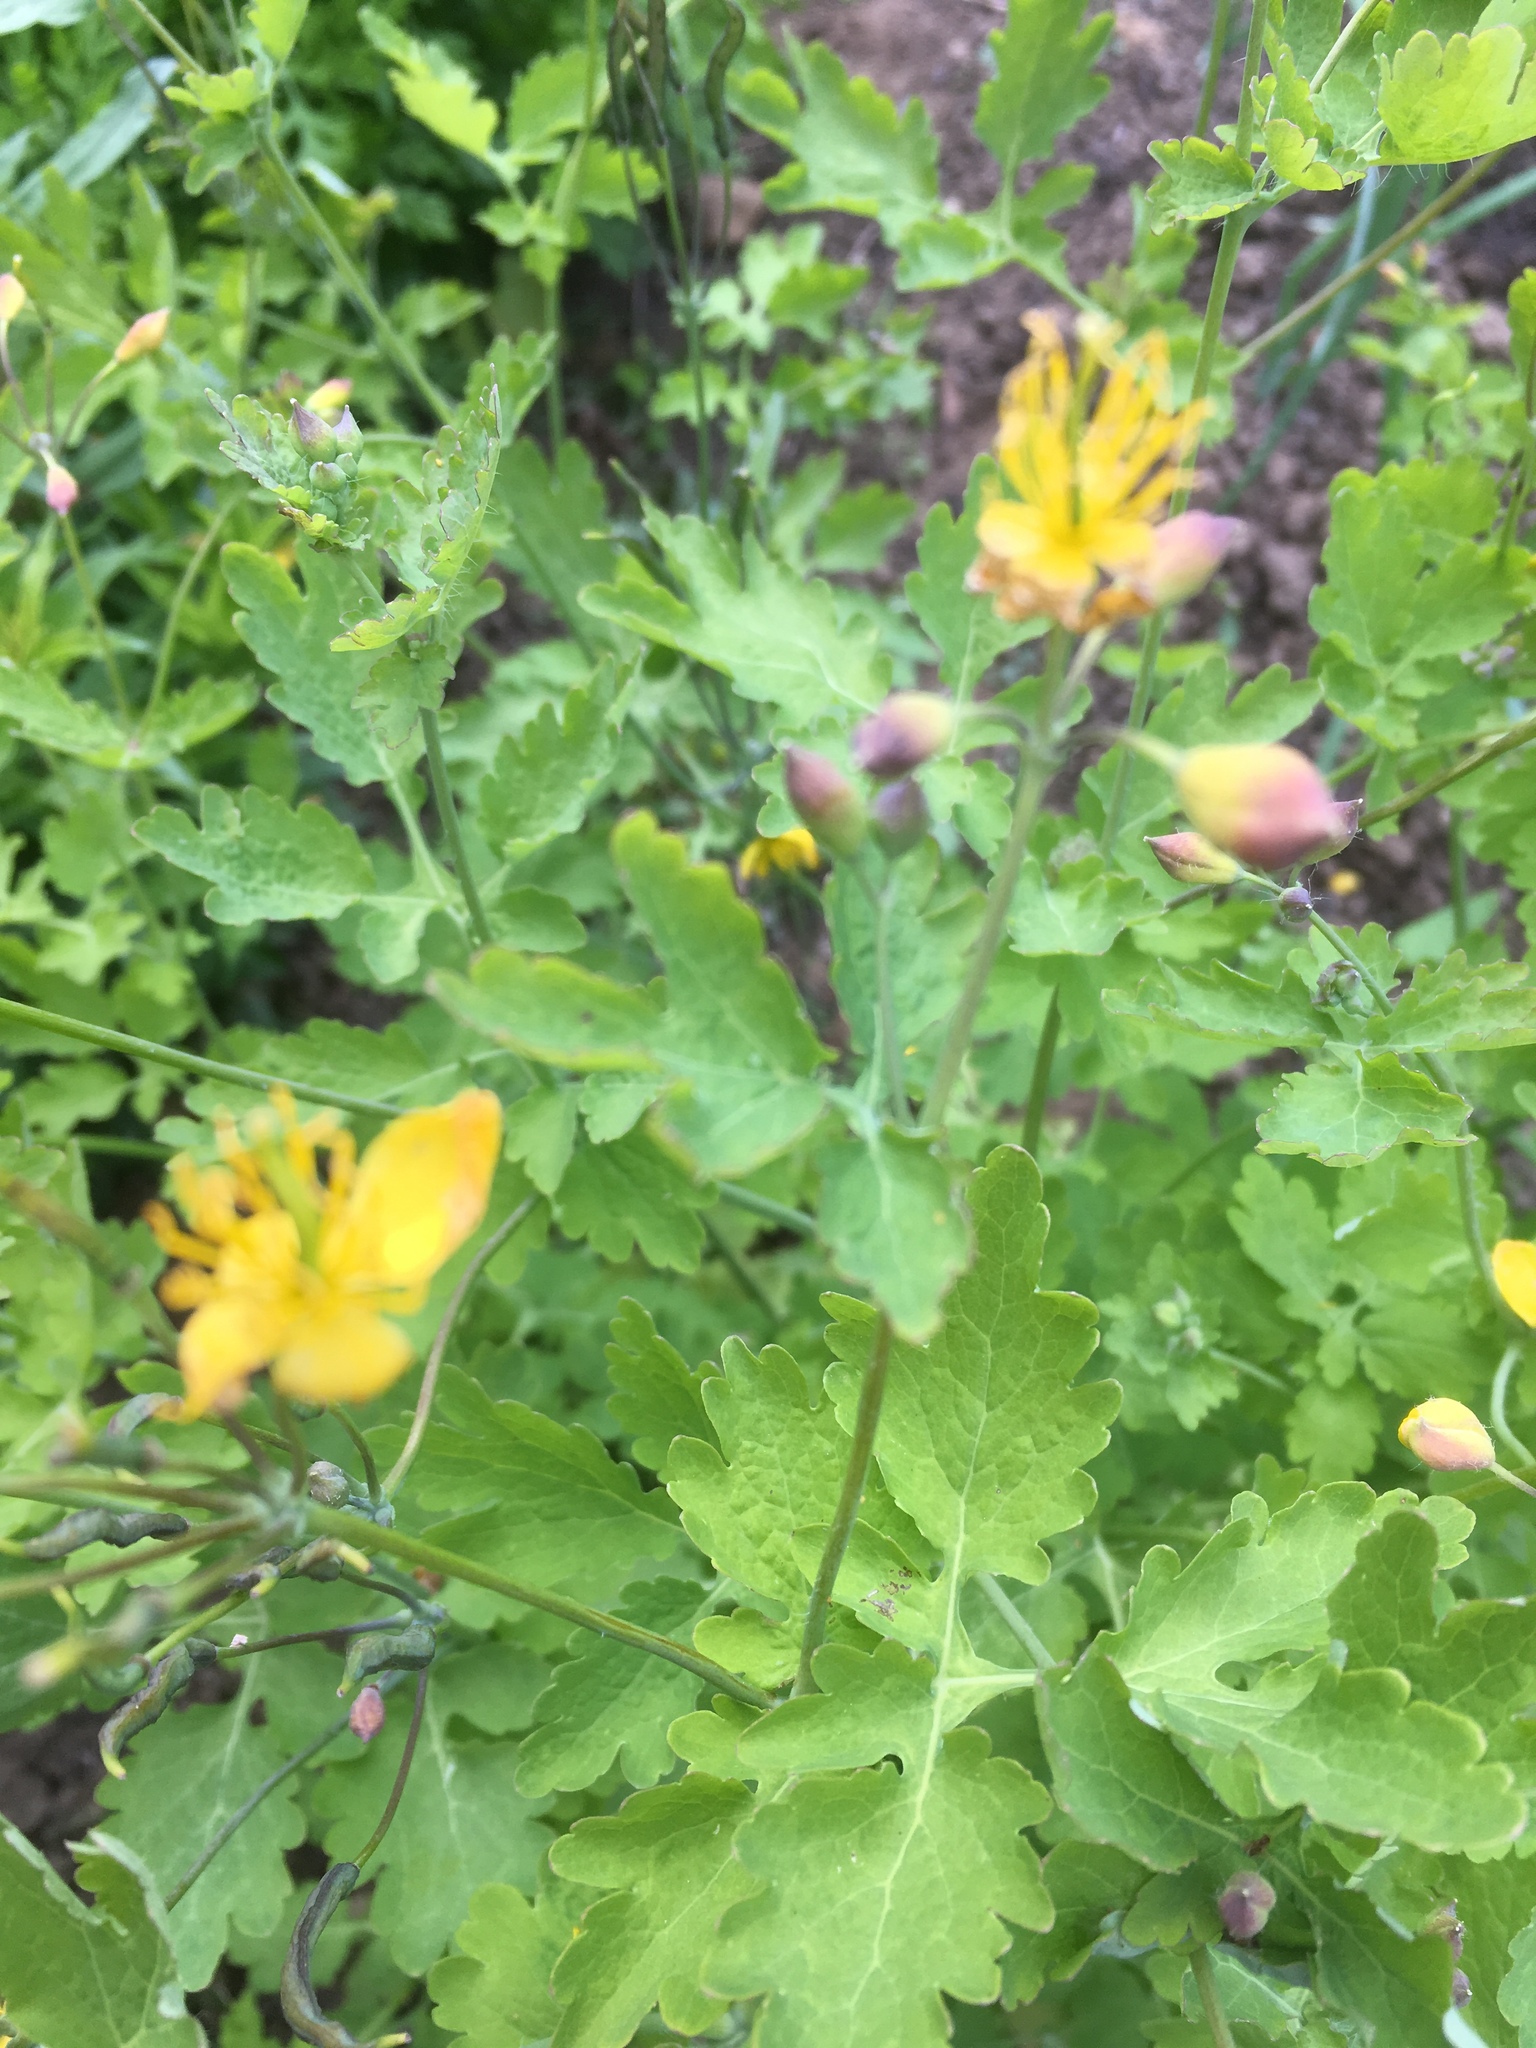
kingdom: Plantae
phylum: Tracheophyta
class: Magnoliopsida
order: Ranunculales
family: Papaveraceae
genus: Chelidonium
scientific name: Chelidonium majus
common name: Greater celandine
